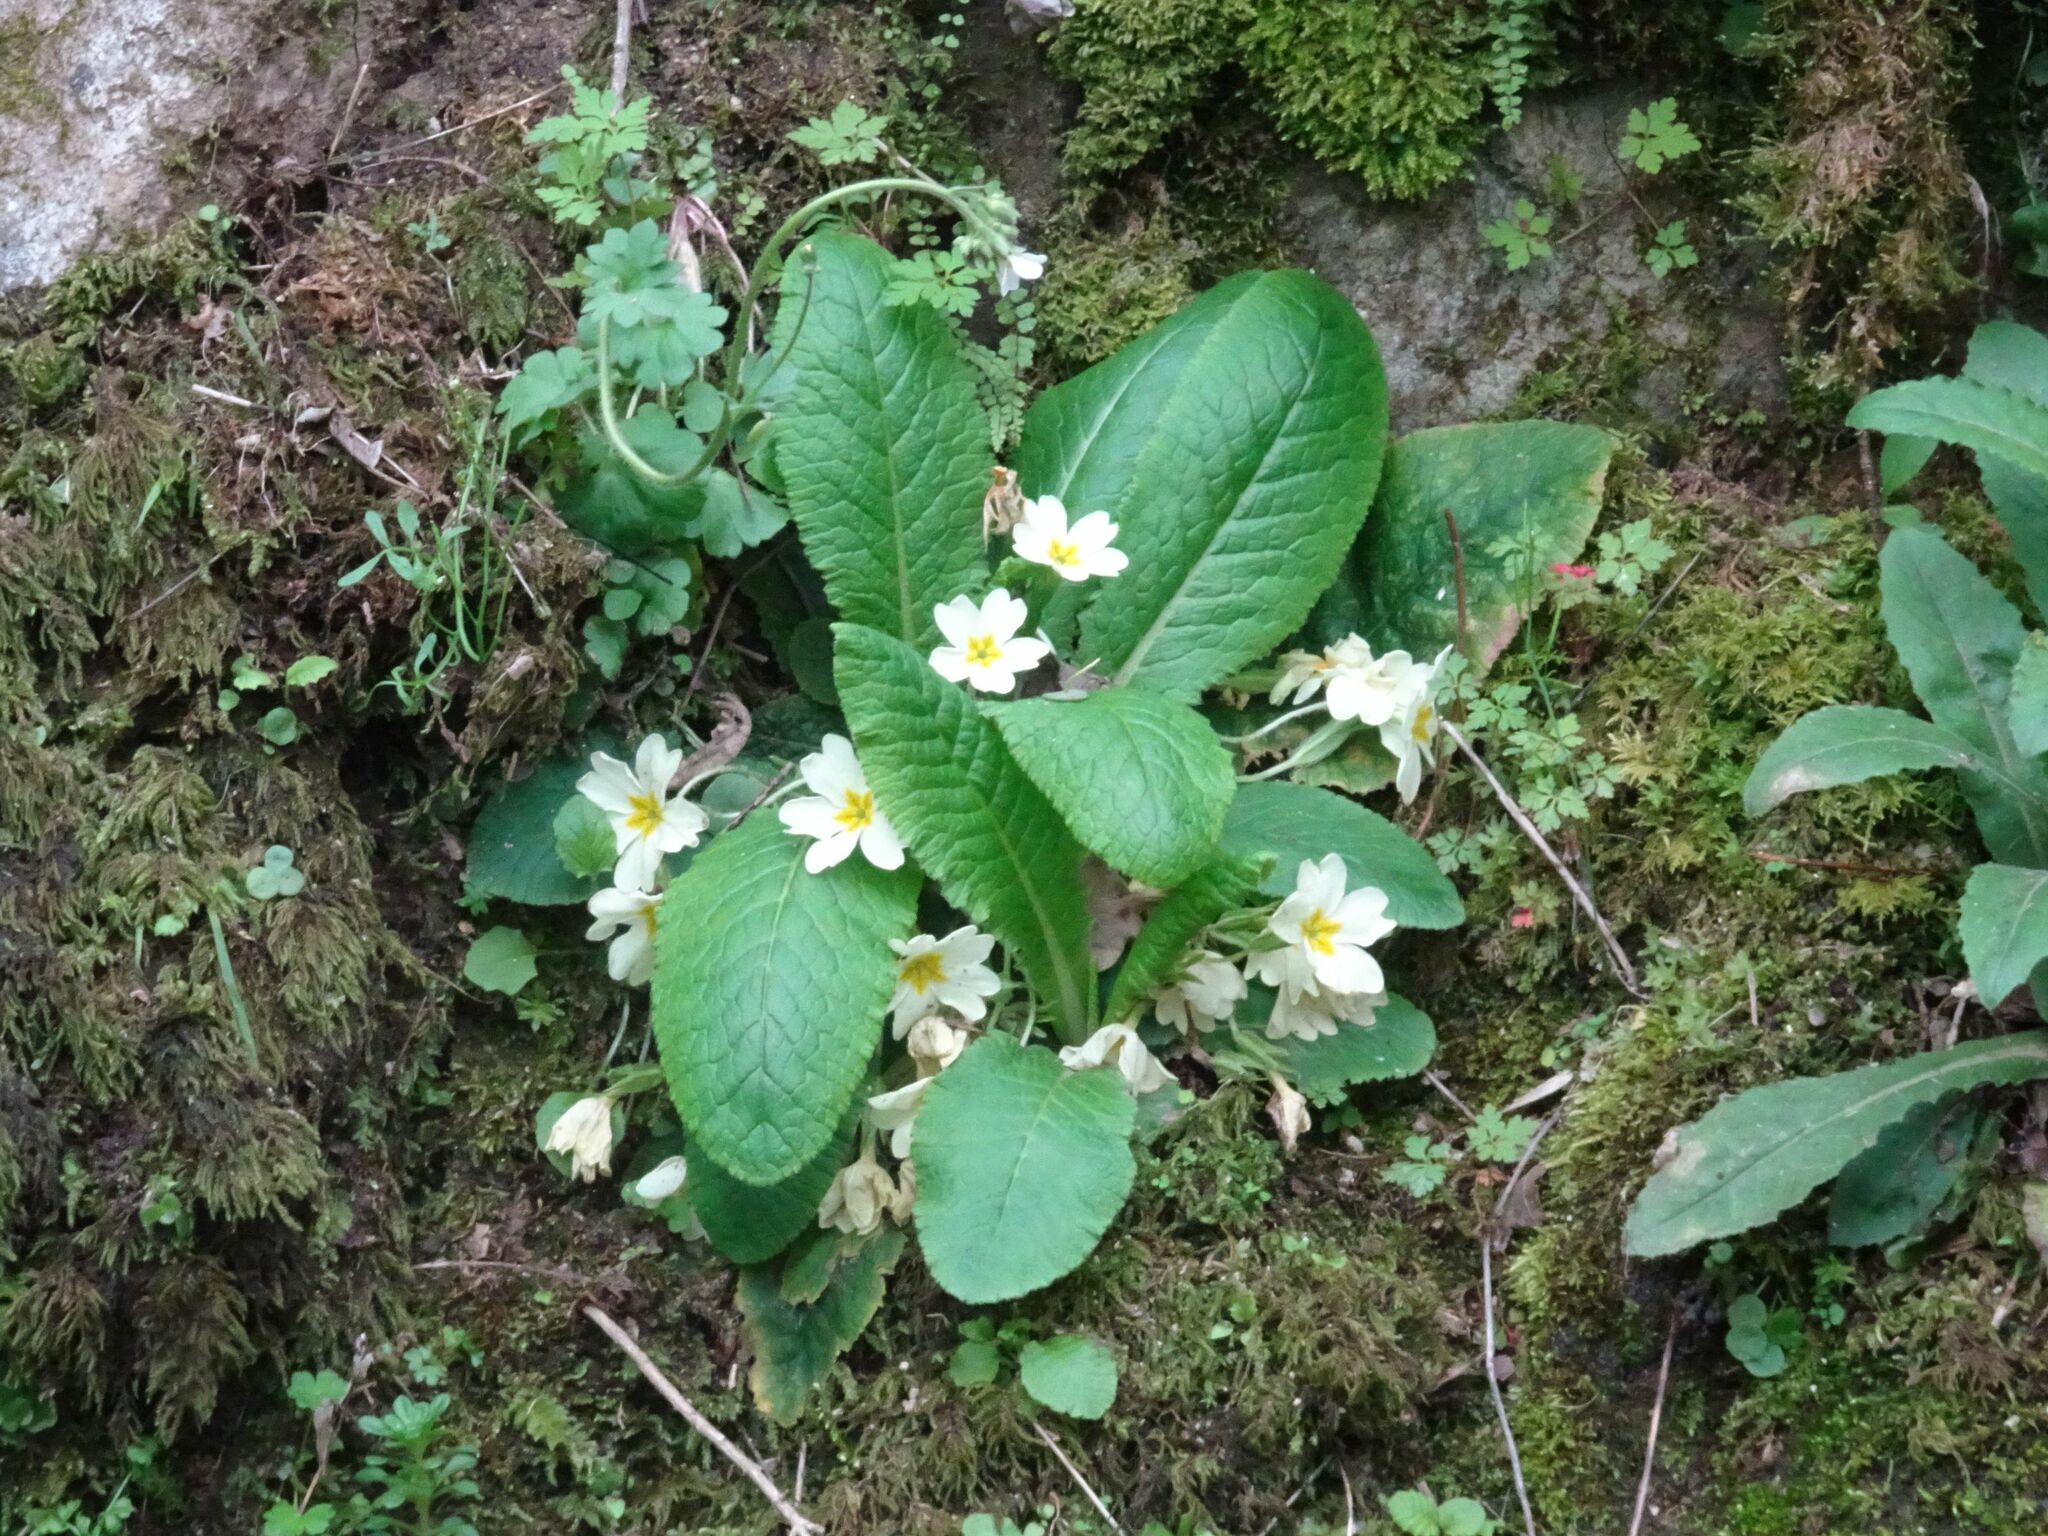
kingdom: Plantae
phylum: Tracheophyta
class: Magnoliopsida
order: Ericales
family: Primulaceae
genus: Primula
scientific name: Primula vulgaris
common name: Primrose
